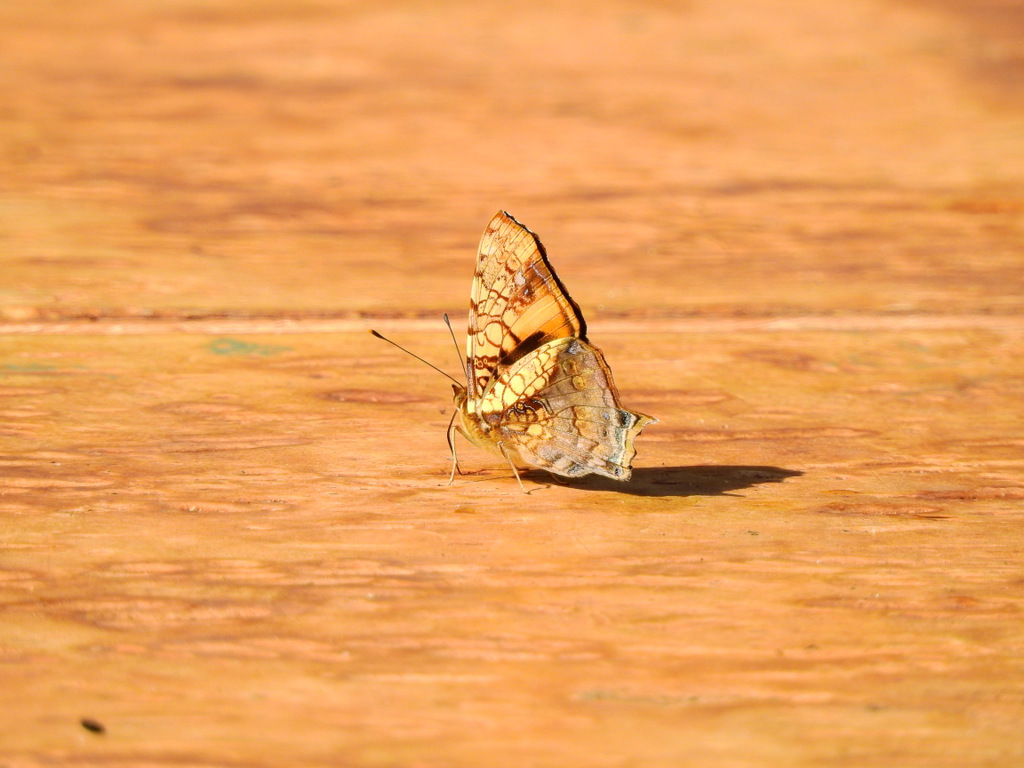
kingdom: Animalia
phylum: Arthropoda
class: Insecta
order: Lepidoptera
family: Nymphalidae
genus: Hypanartia
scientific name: Hypanartia lethe
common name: Orange mapwing
